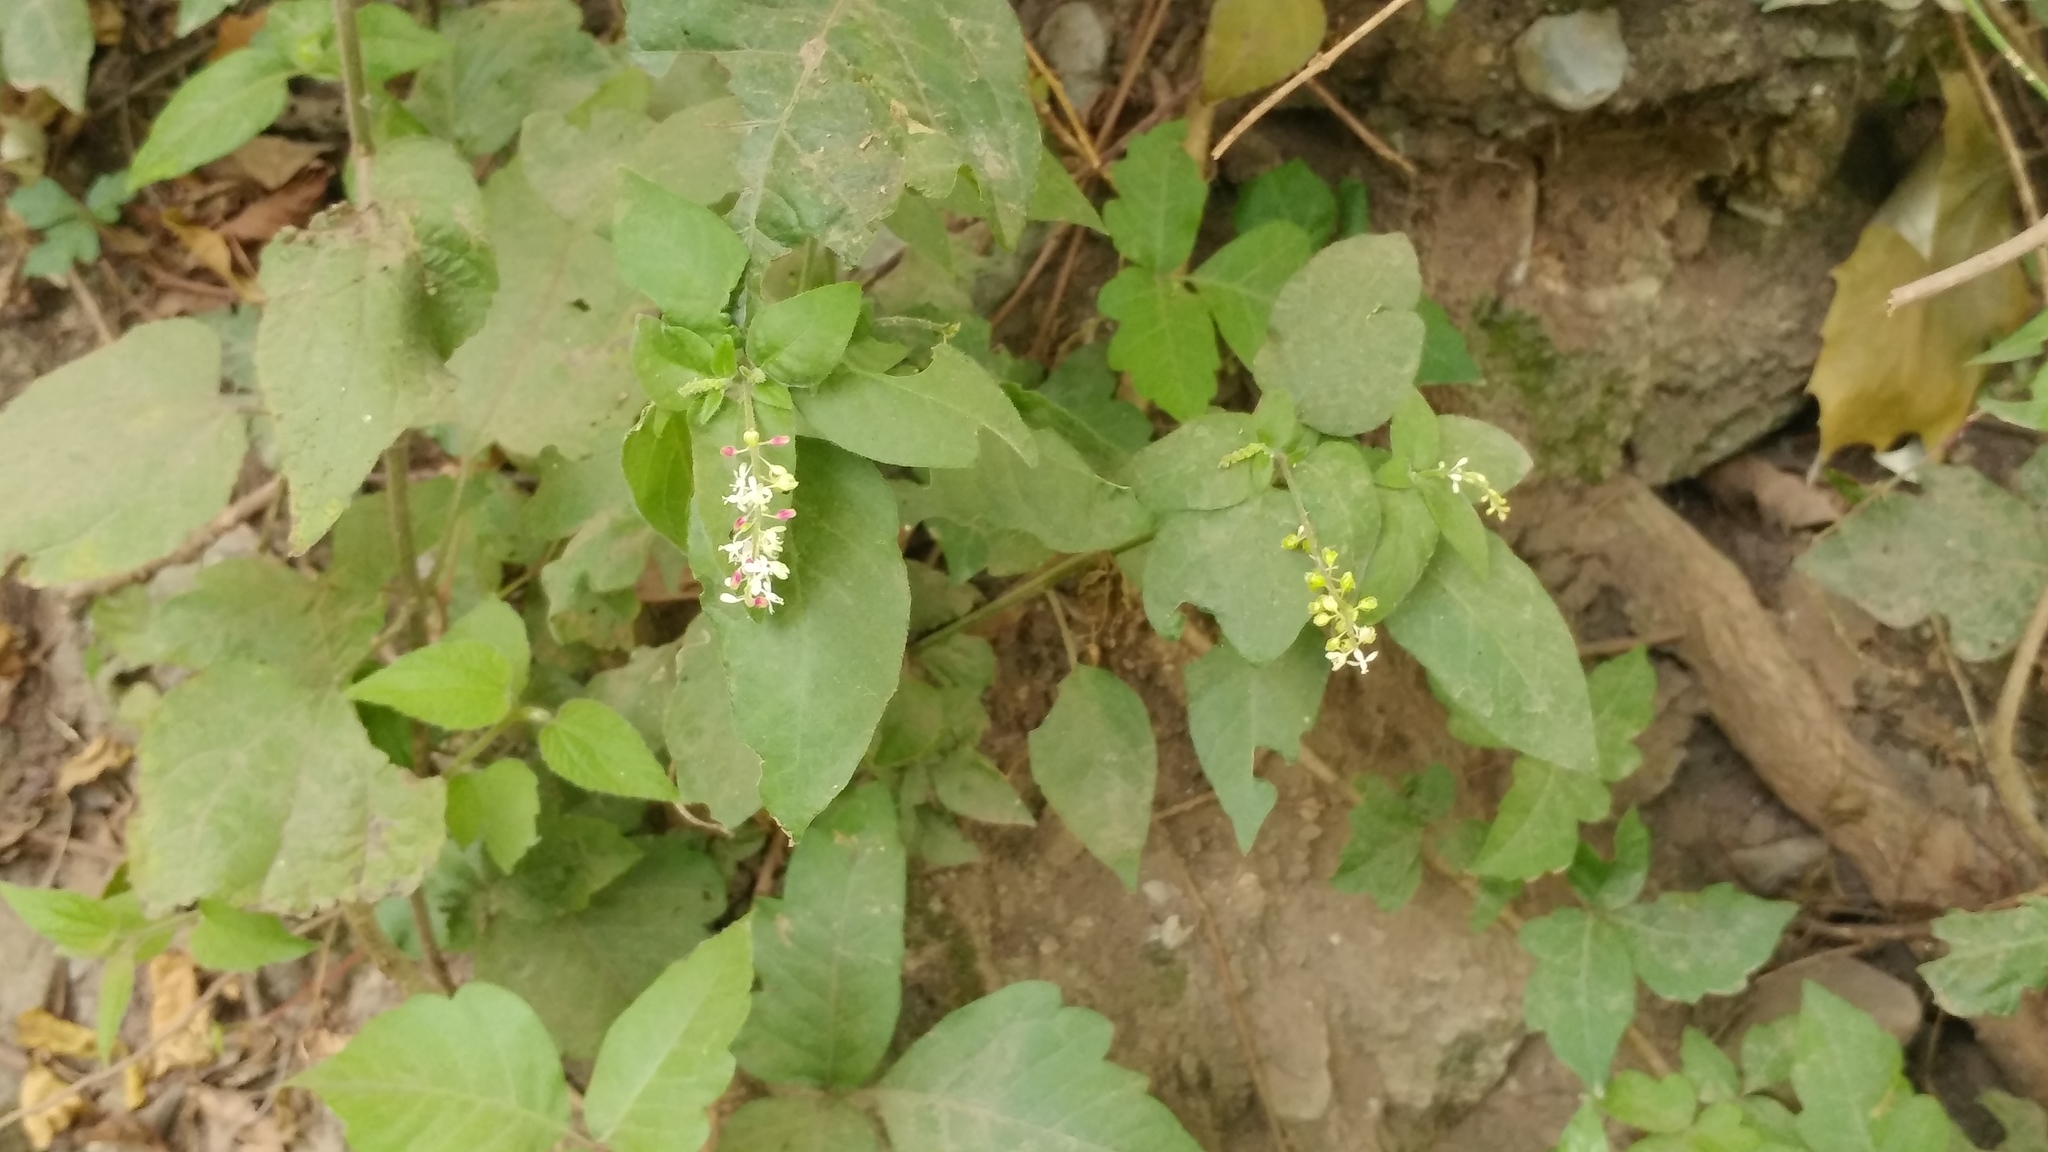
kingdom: Plantae
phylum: Tracheophyta
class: Magnoliopsida
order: Caryophyllales
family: Phytolaccaceae
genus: Rivina
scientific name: Rivina humilis
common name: Rougeplant
